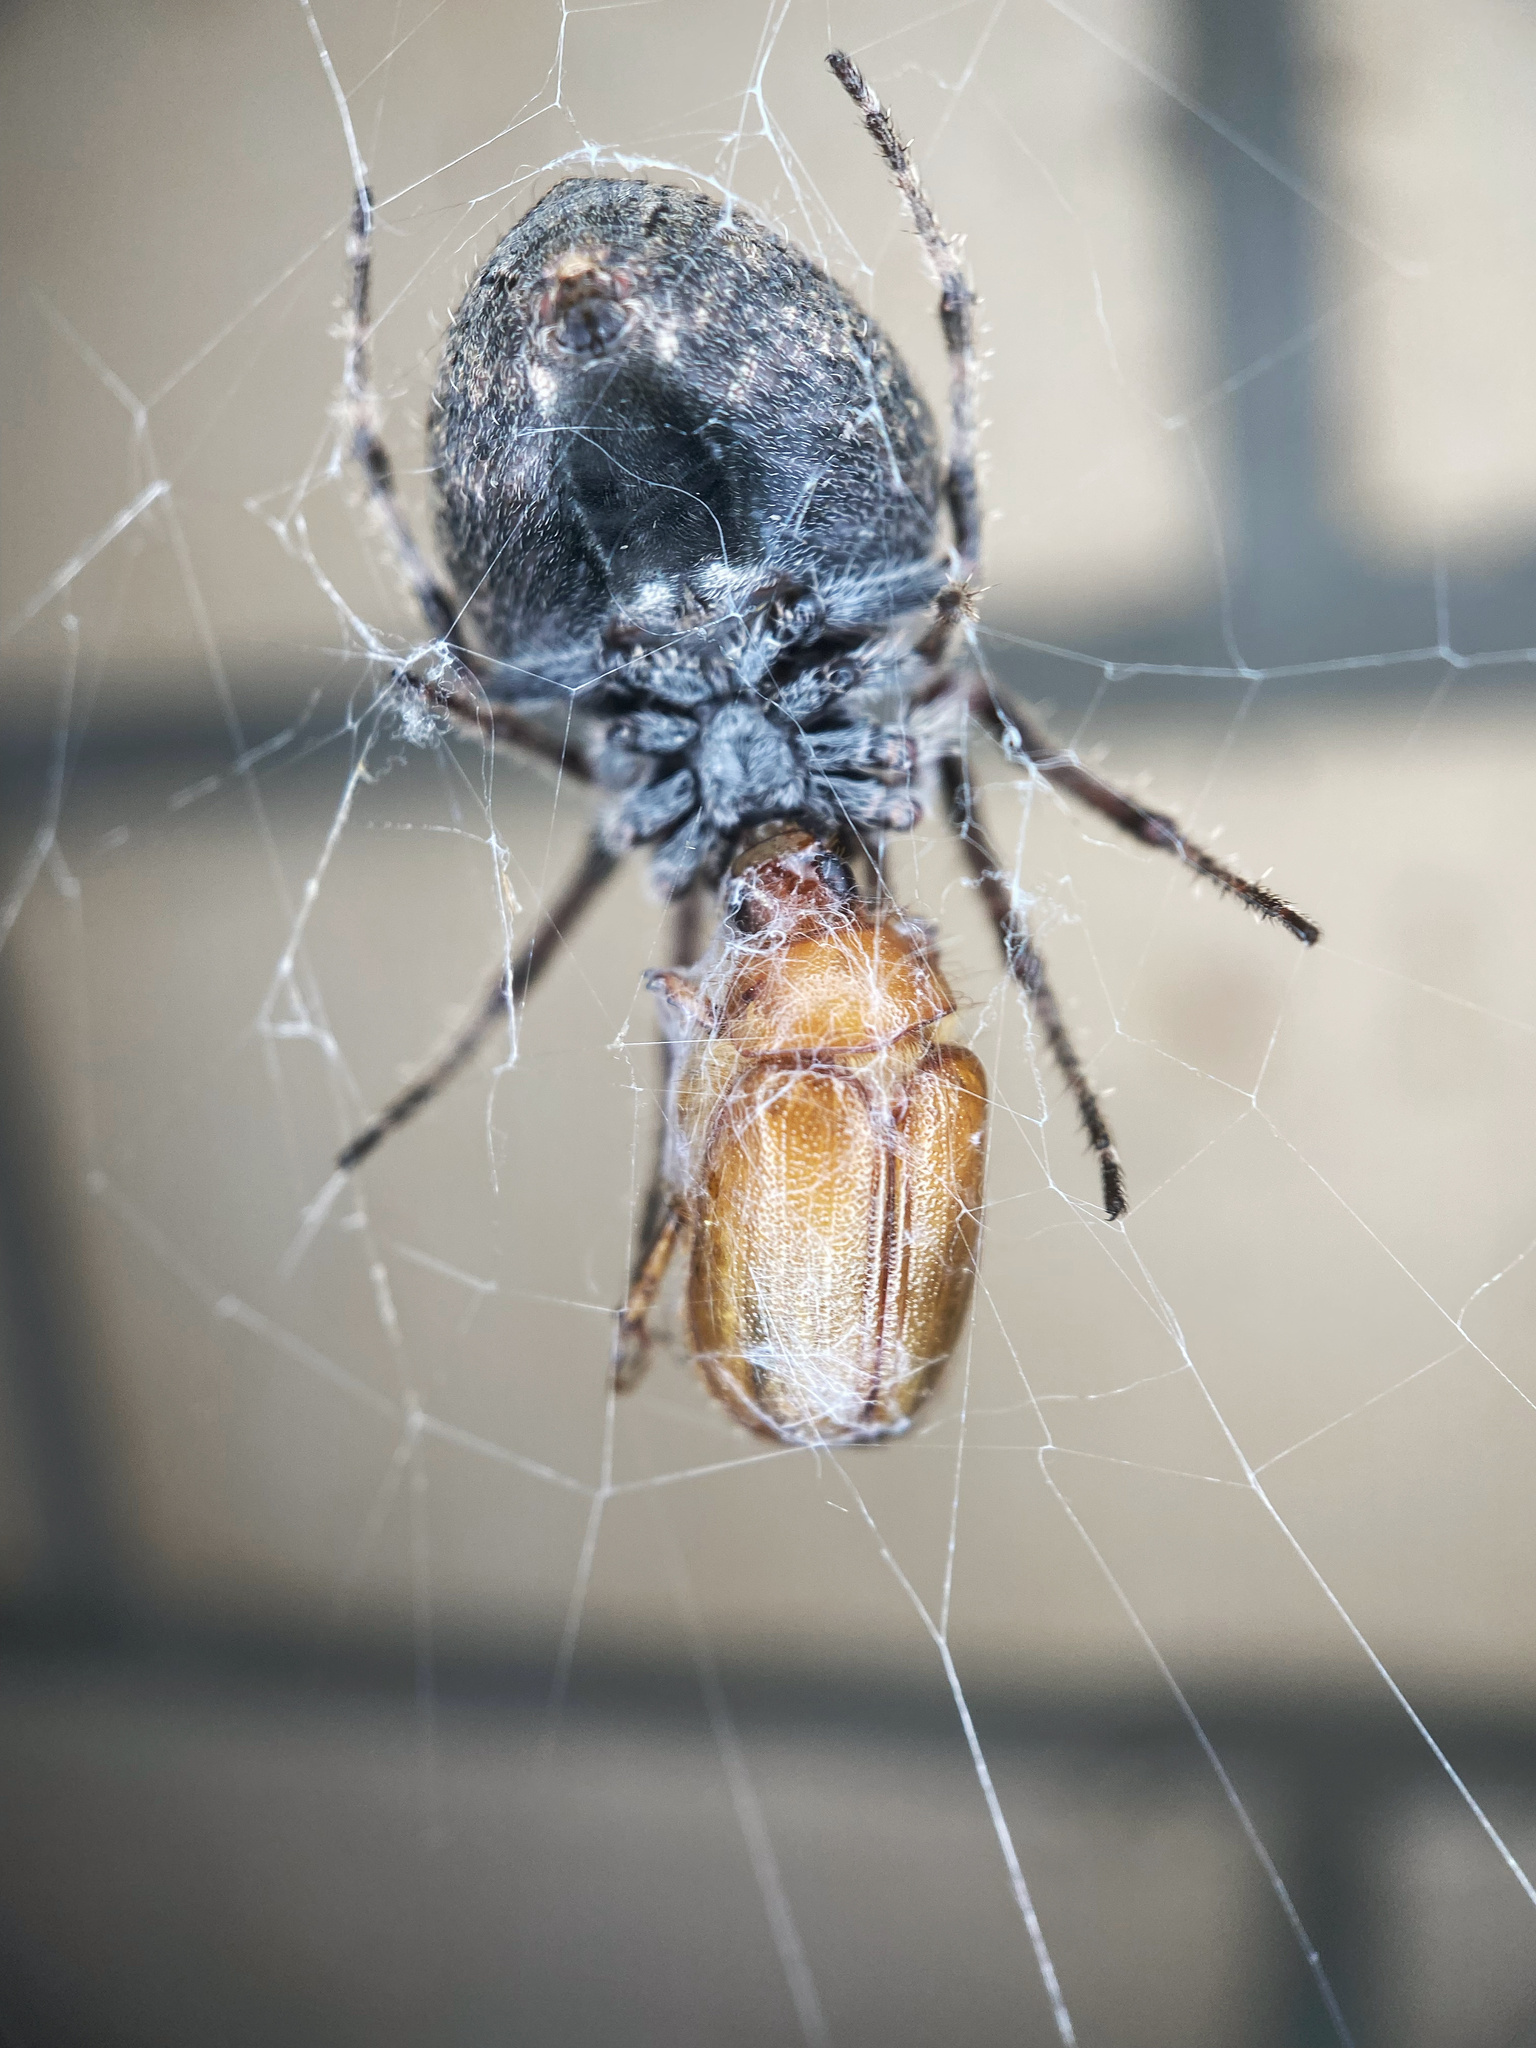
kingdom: Animalia
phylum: Arthropoda
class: Arachnida
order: Araneae
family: Araneidae
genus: Eriophora
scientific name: Eriophora pustulosa
